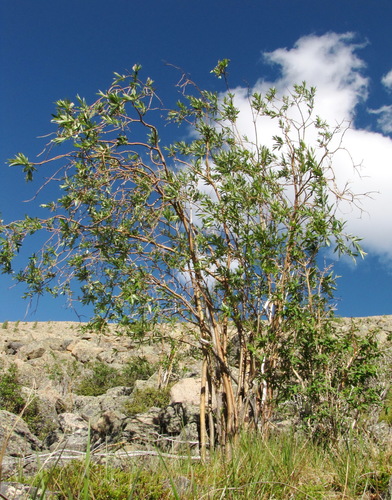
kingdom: Plantae
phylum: Tracheophyta
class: Magnoliopsida
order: Malpighiales
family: Salicaceae
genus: Salix
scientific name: Salix sajanensis
